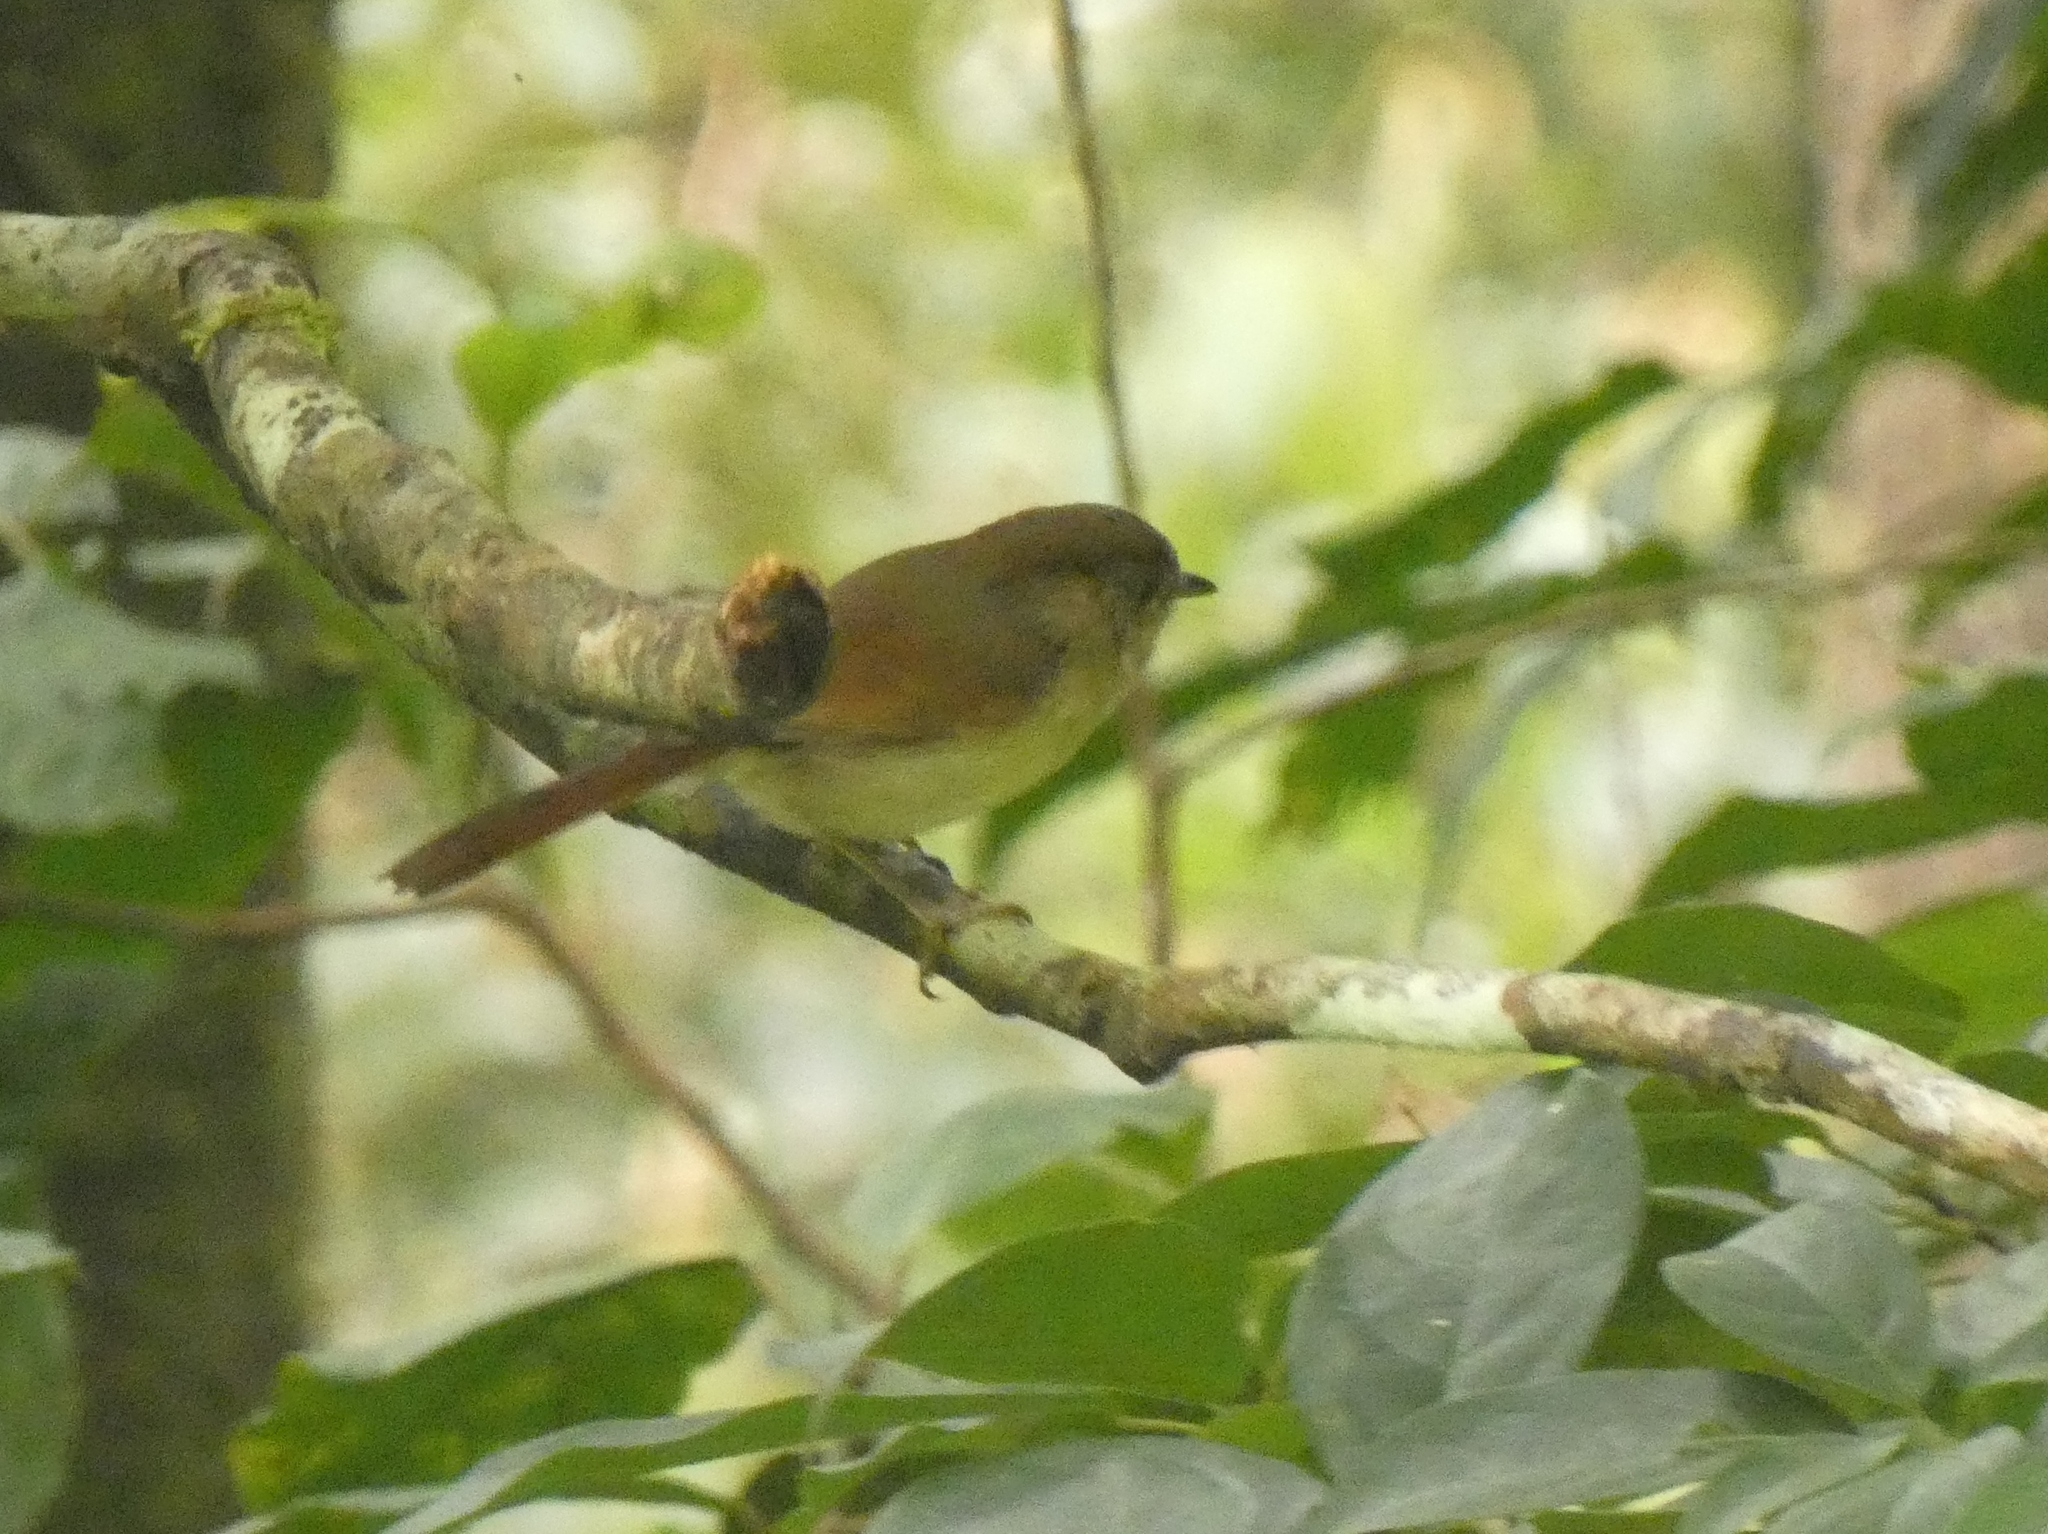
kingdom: Animalia
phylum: Chordata
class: Aves
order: Passeriformes
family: Pellorneidae
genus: Alcippe
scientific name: Alcippe pyrrhoptera
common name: Javan fulvetta
